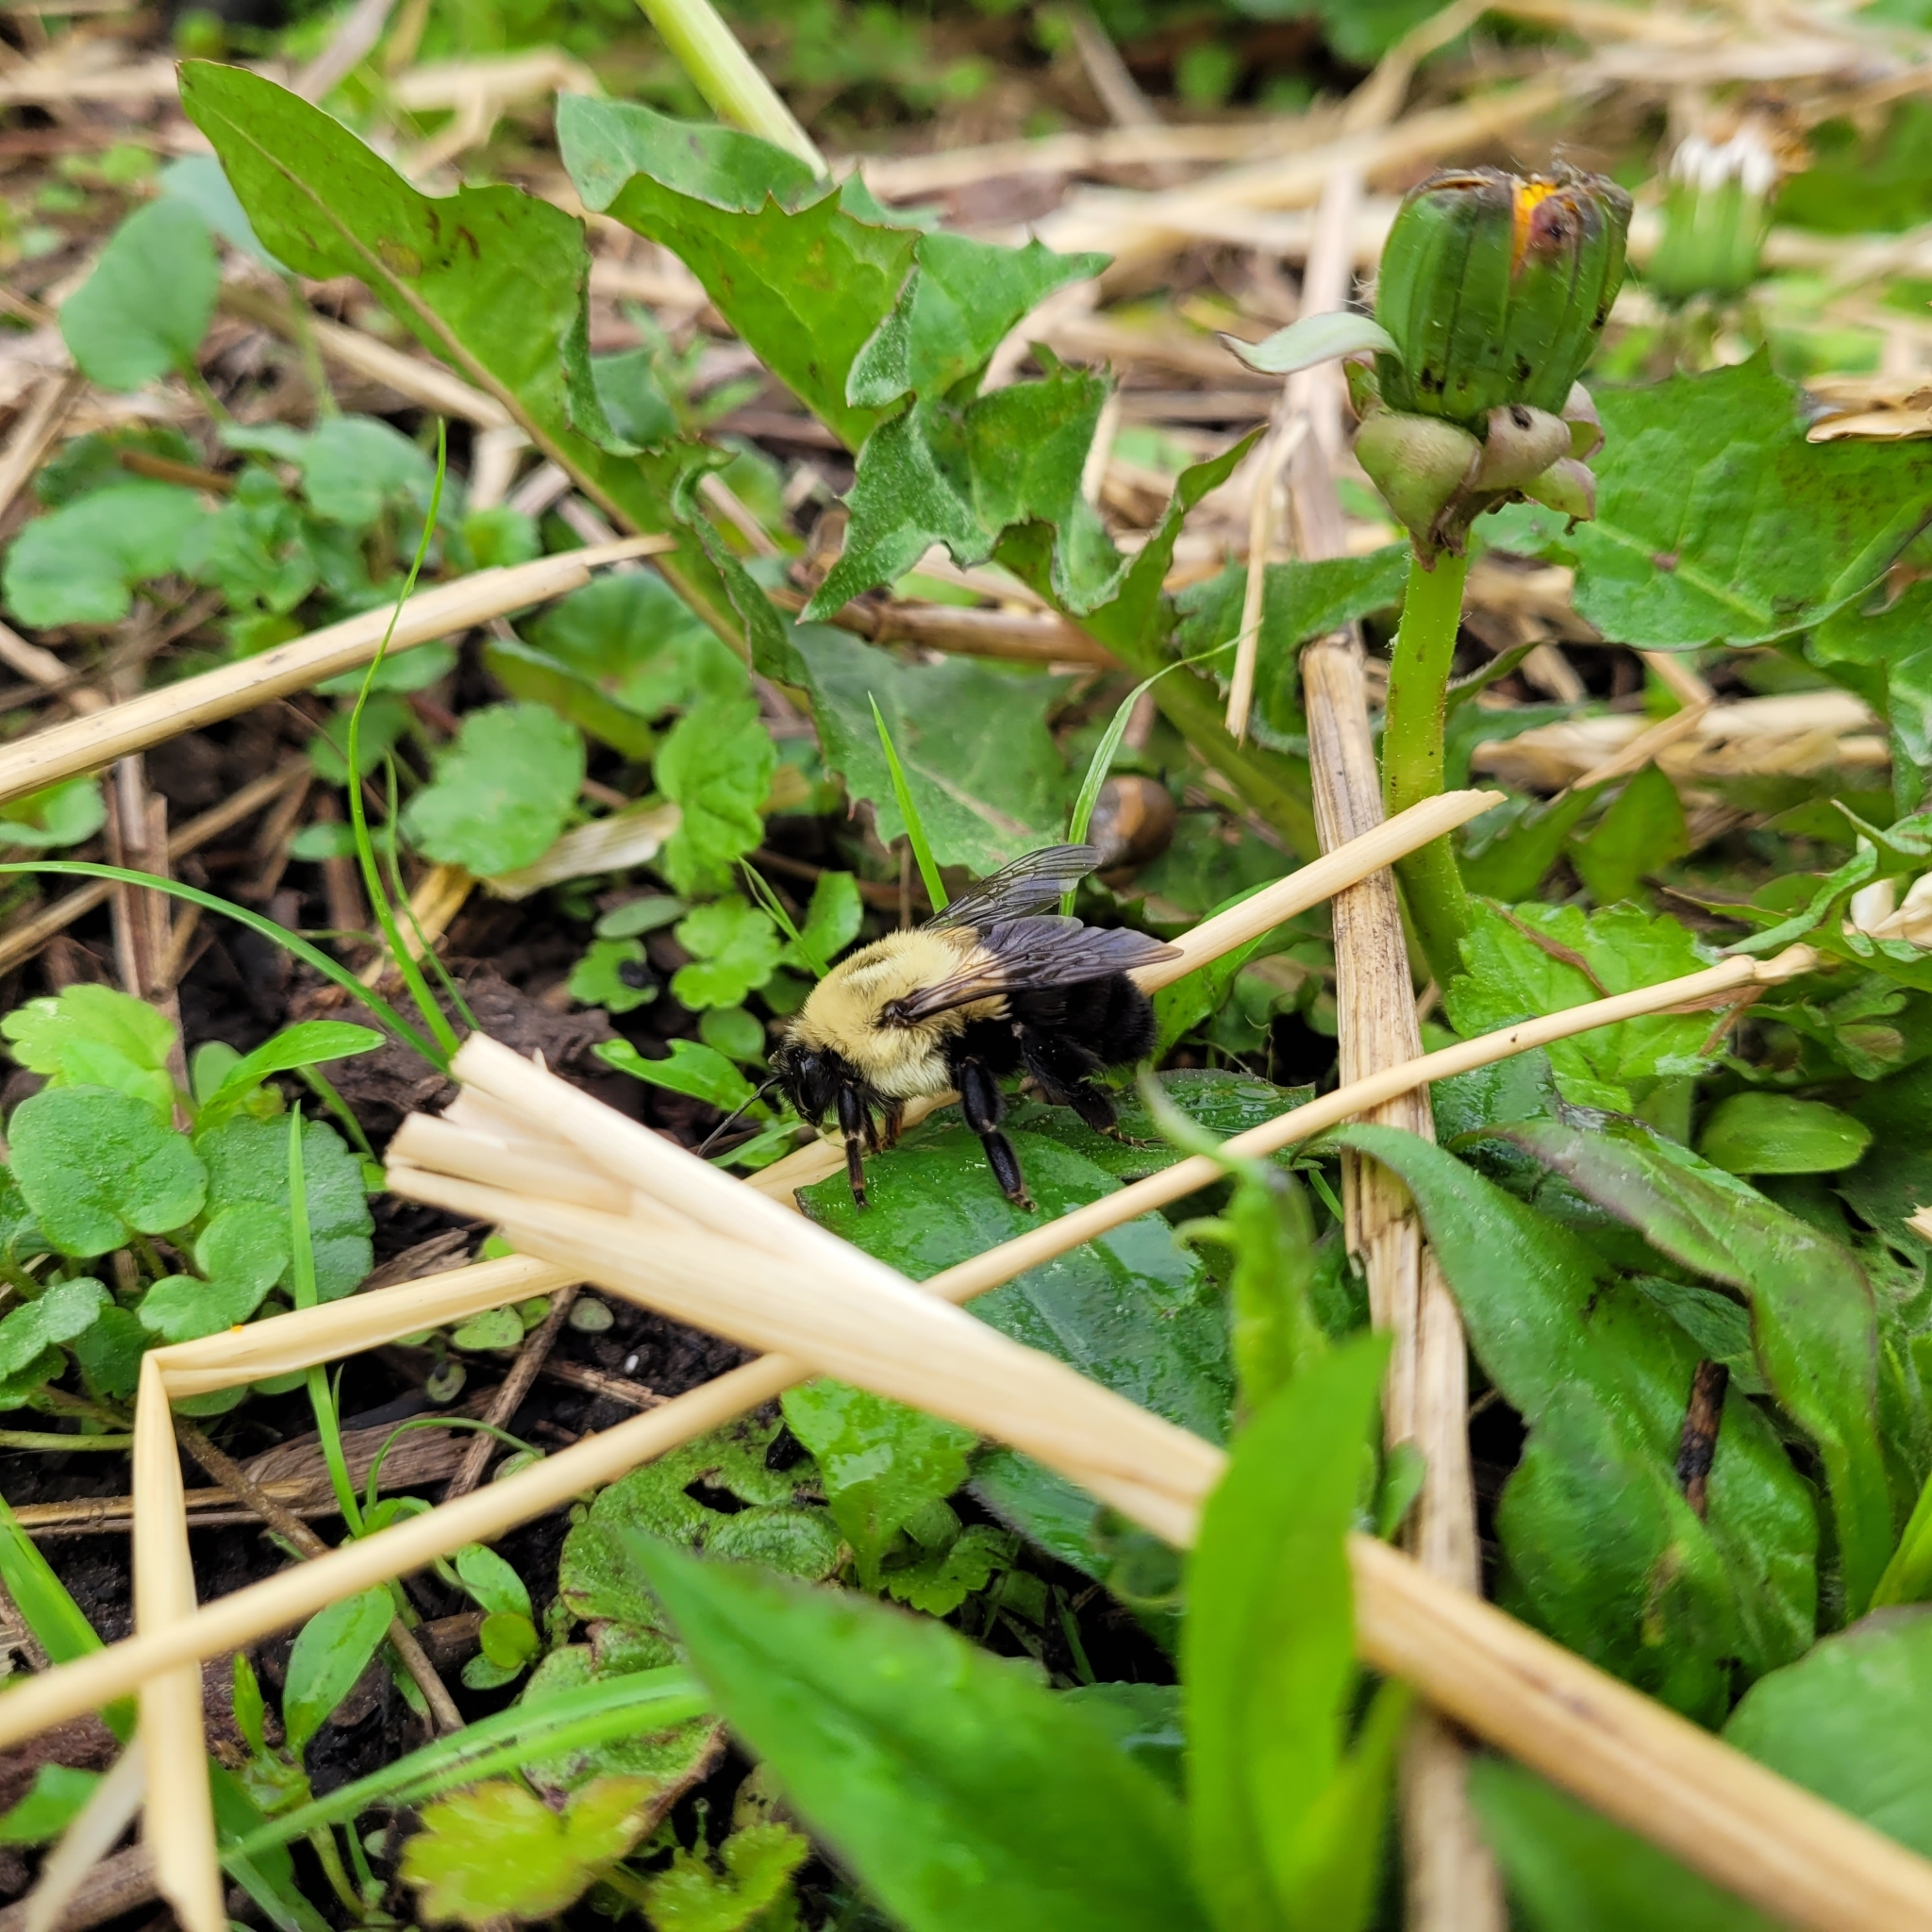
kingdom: Animalia
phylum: Arthropoda
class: Insecta
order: Hymenoptera
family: Apidae
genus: Bombus
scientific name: Bombus impatiens
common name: Common eastern bumble bee
